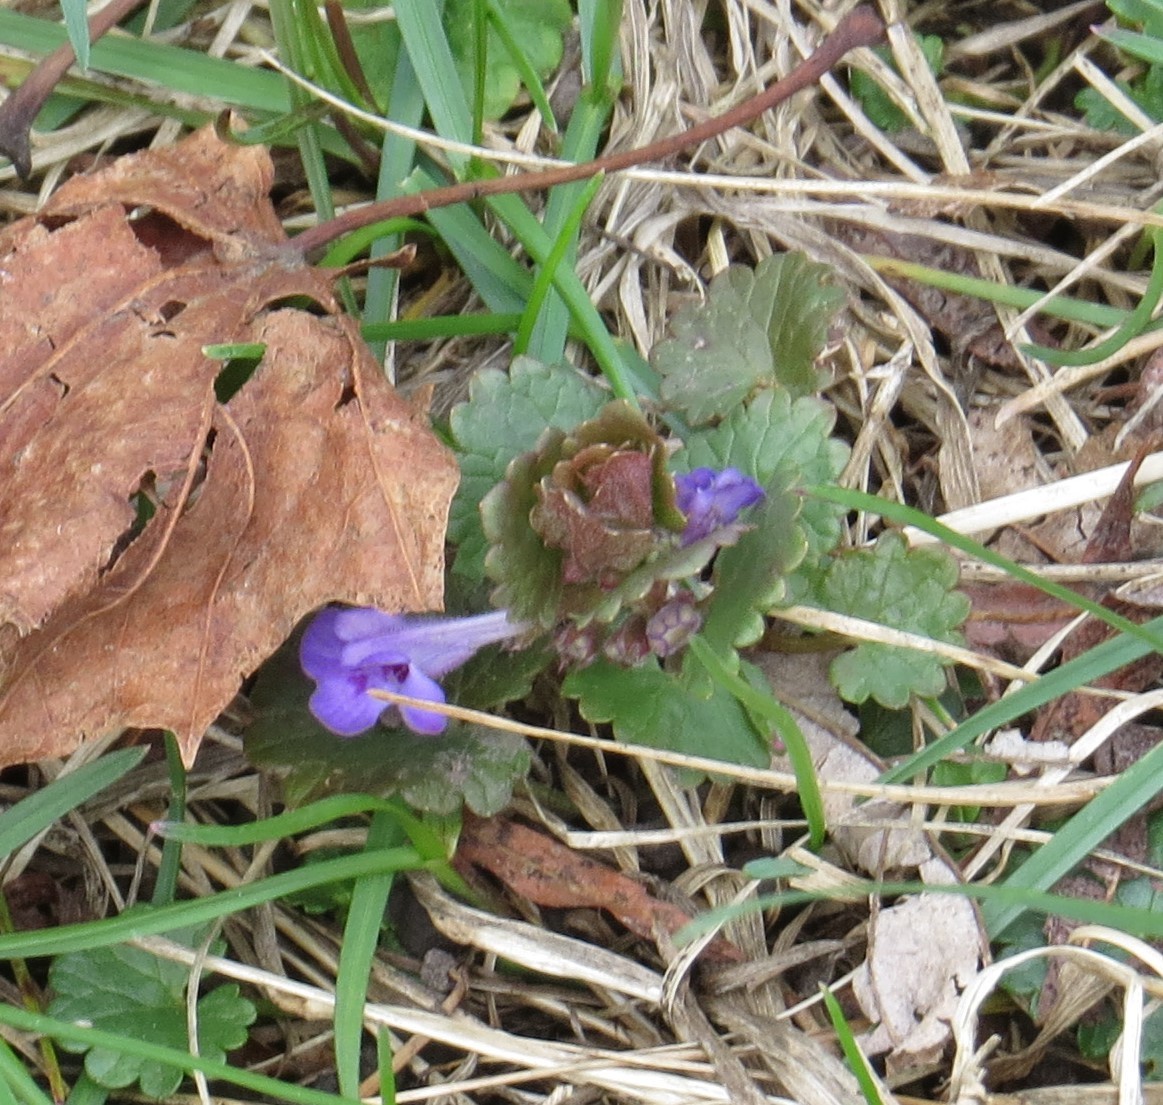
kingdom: Plantae
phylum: Tracheophyta
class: Magnoliopsida
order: Lamiales
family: Lamiaceae
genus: Glechoma
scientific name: Glechoma hederacea
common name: Ground ivy
